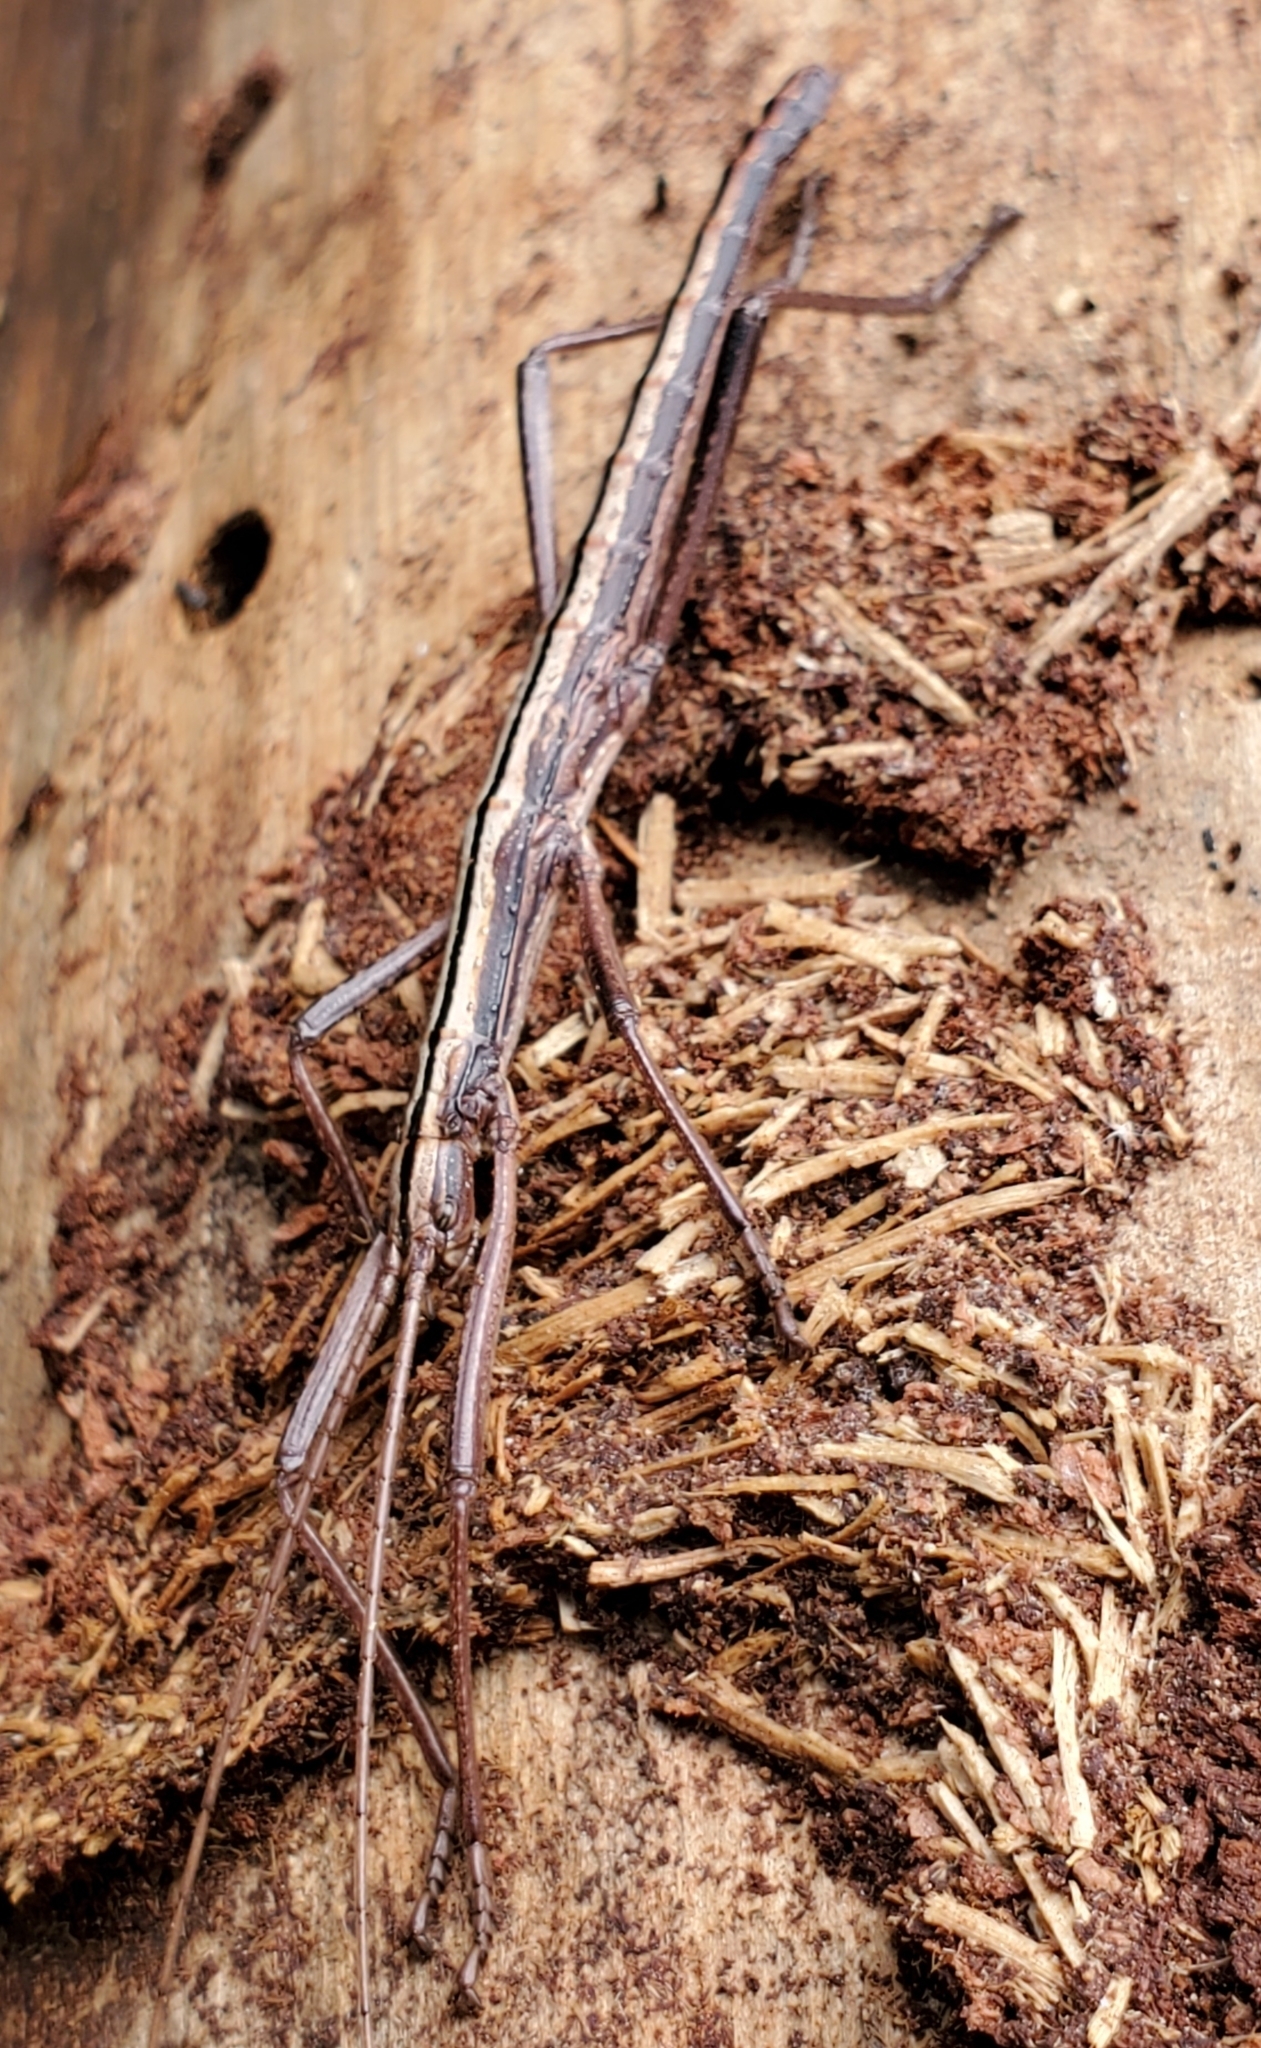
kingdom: Animalia
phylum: Arthropoda
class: Insecta
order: Phasmida
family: Pseudophasmatidae
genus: Anisomorpha
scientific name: Anisomorpha buprestoides
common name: Florida stick insect
